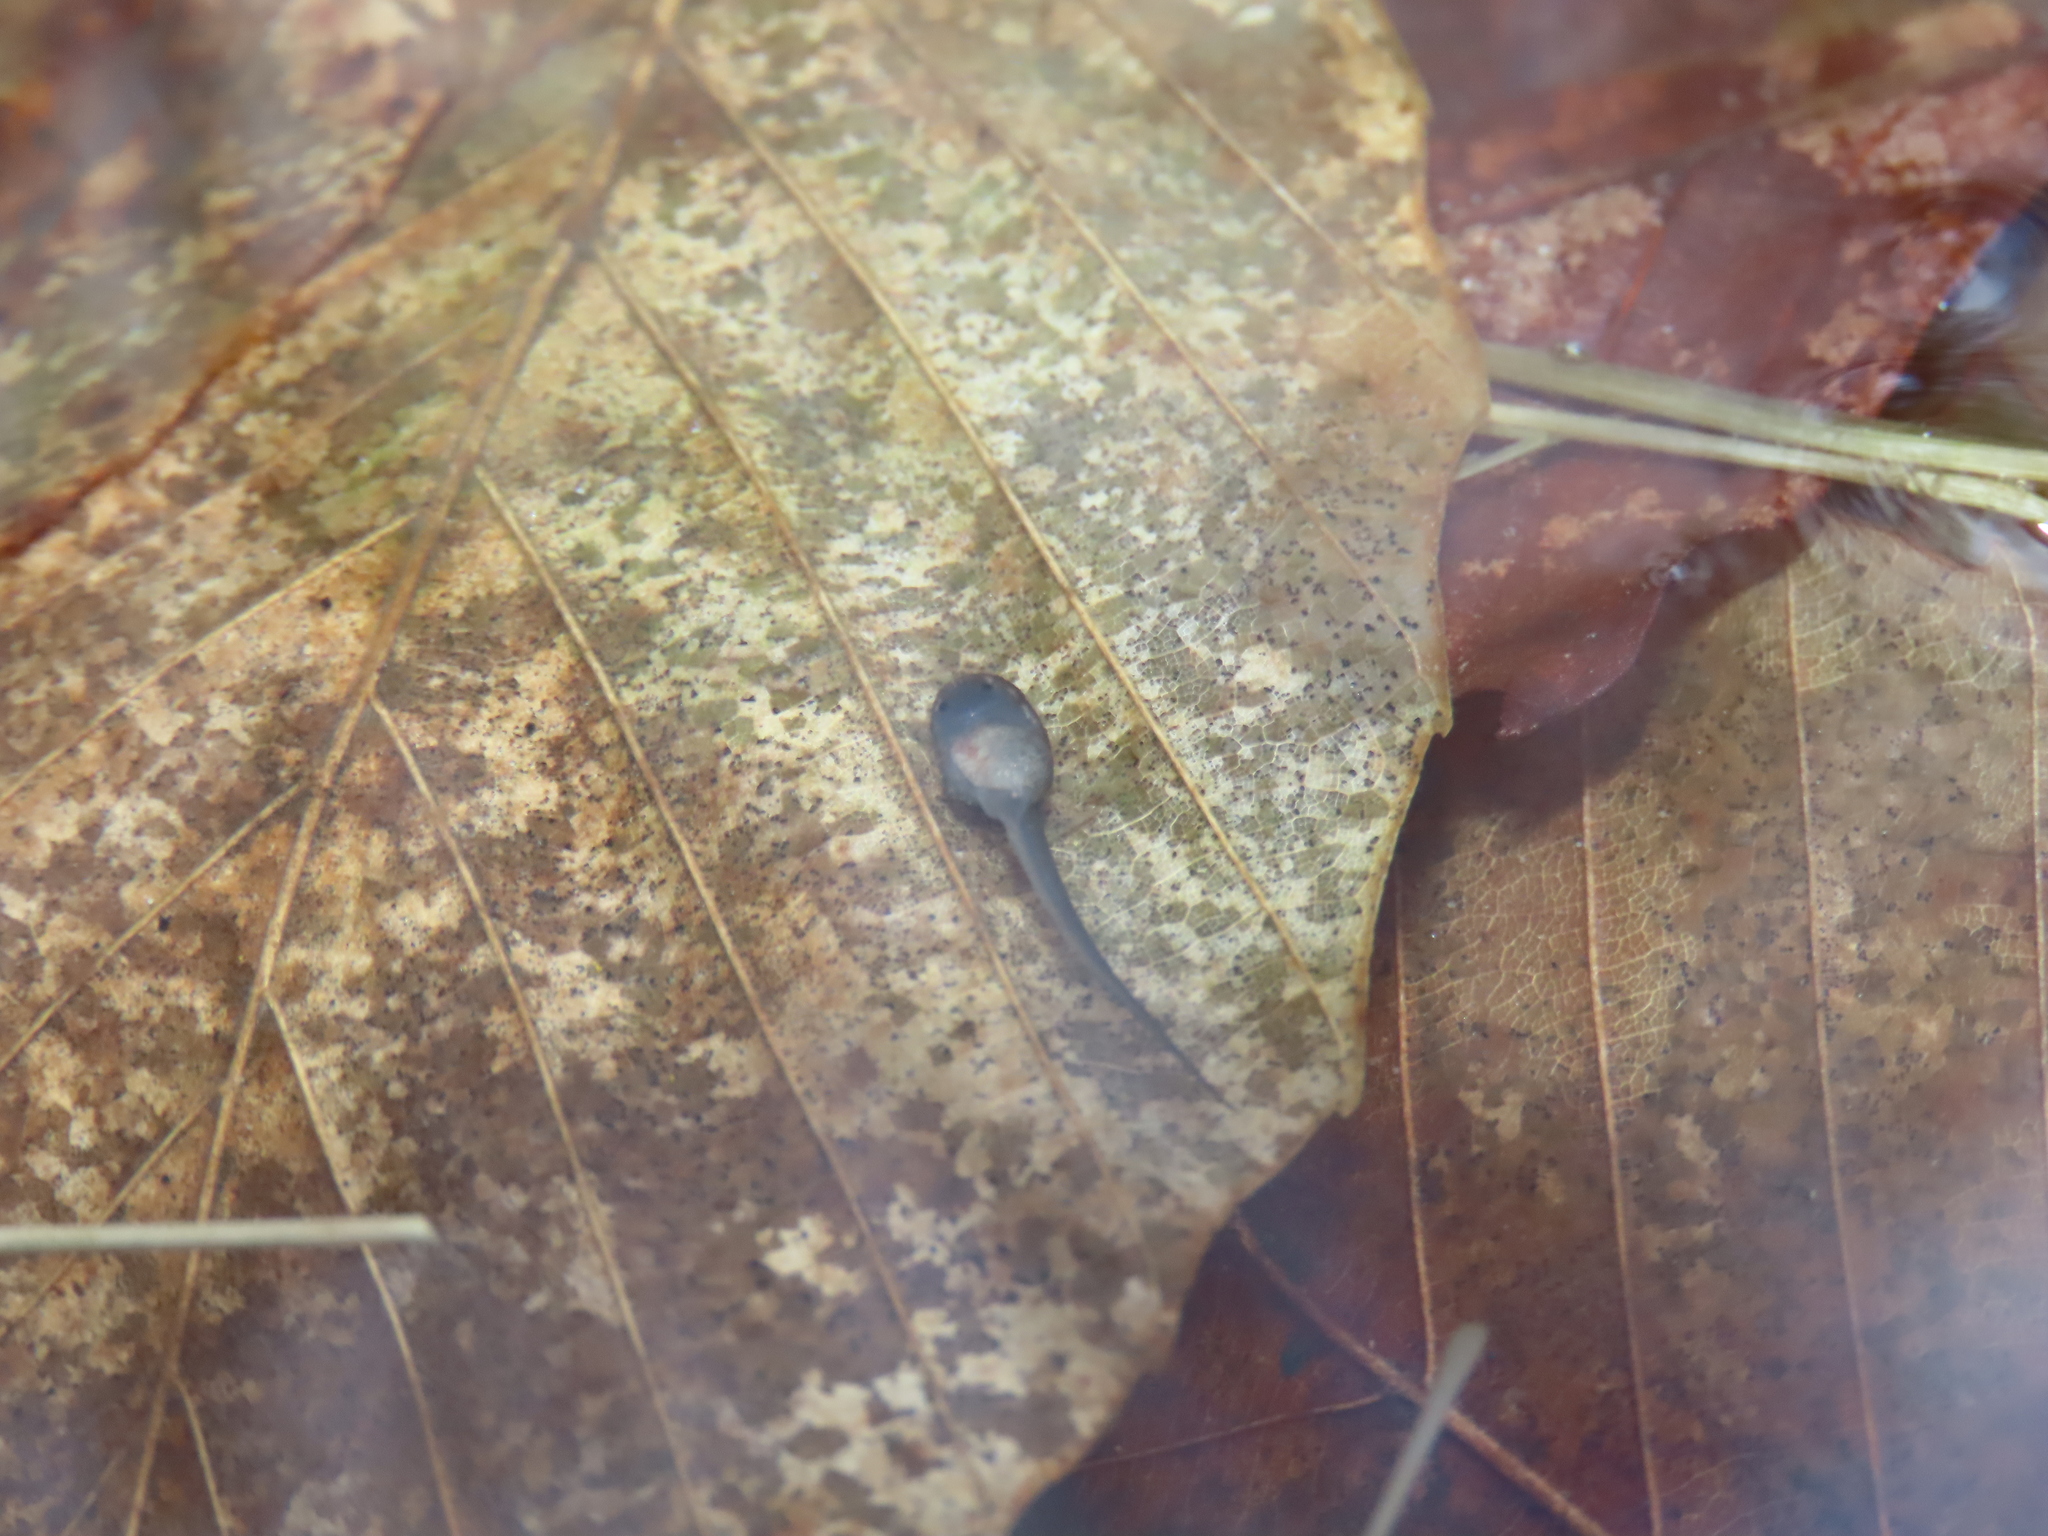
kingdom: Animalia
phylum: Chordata
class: Amphibia
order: Anura
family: Ranidae
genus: Lithobates
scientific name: Lithobates sylvaticus
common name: Wood frog
